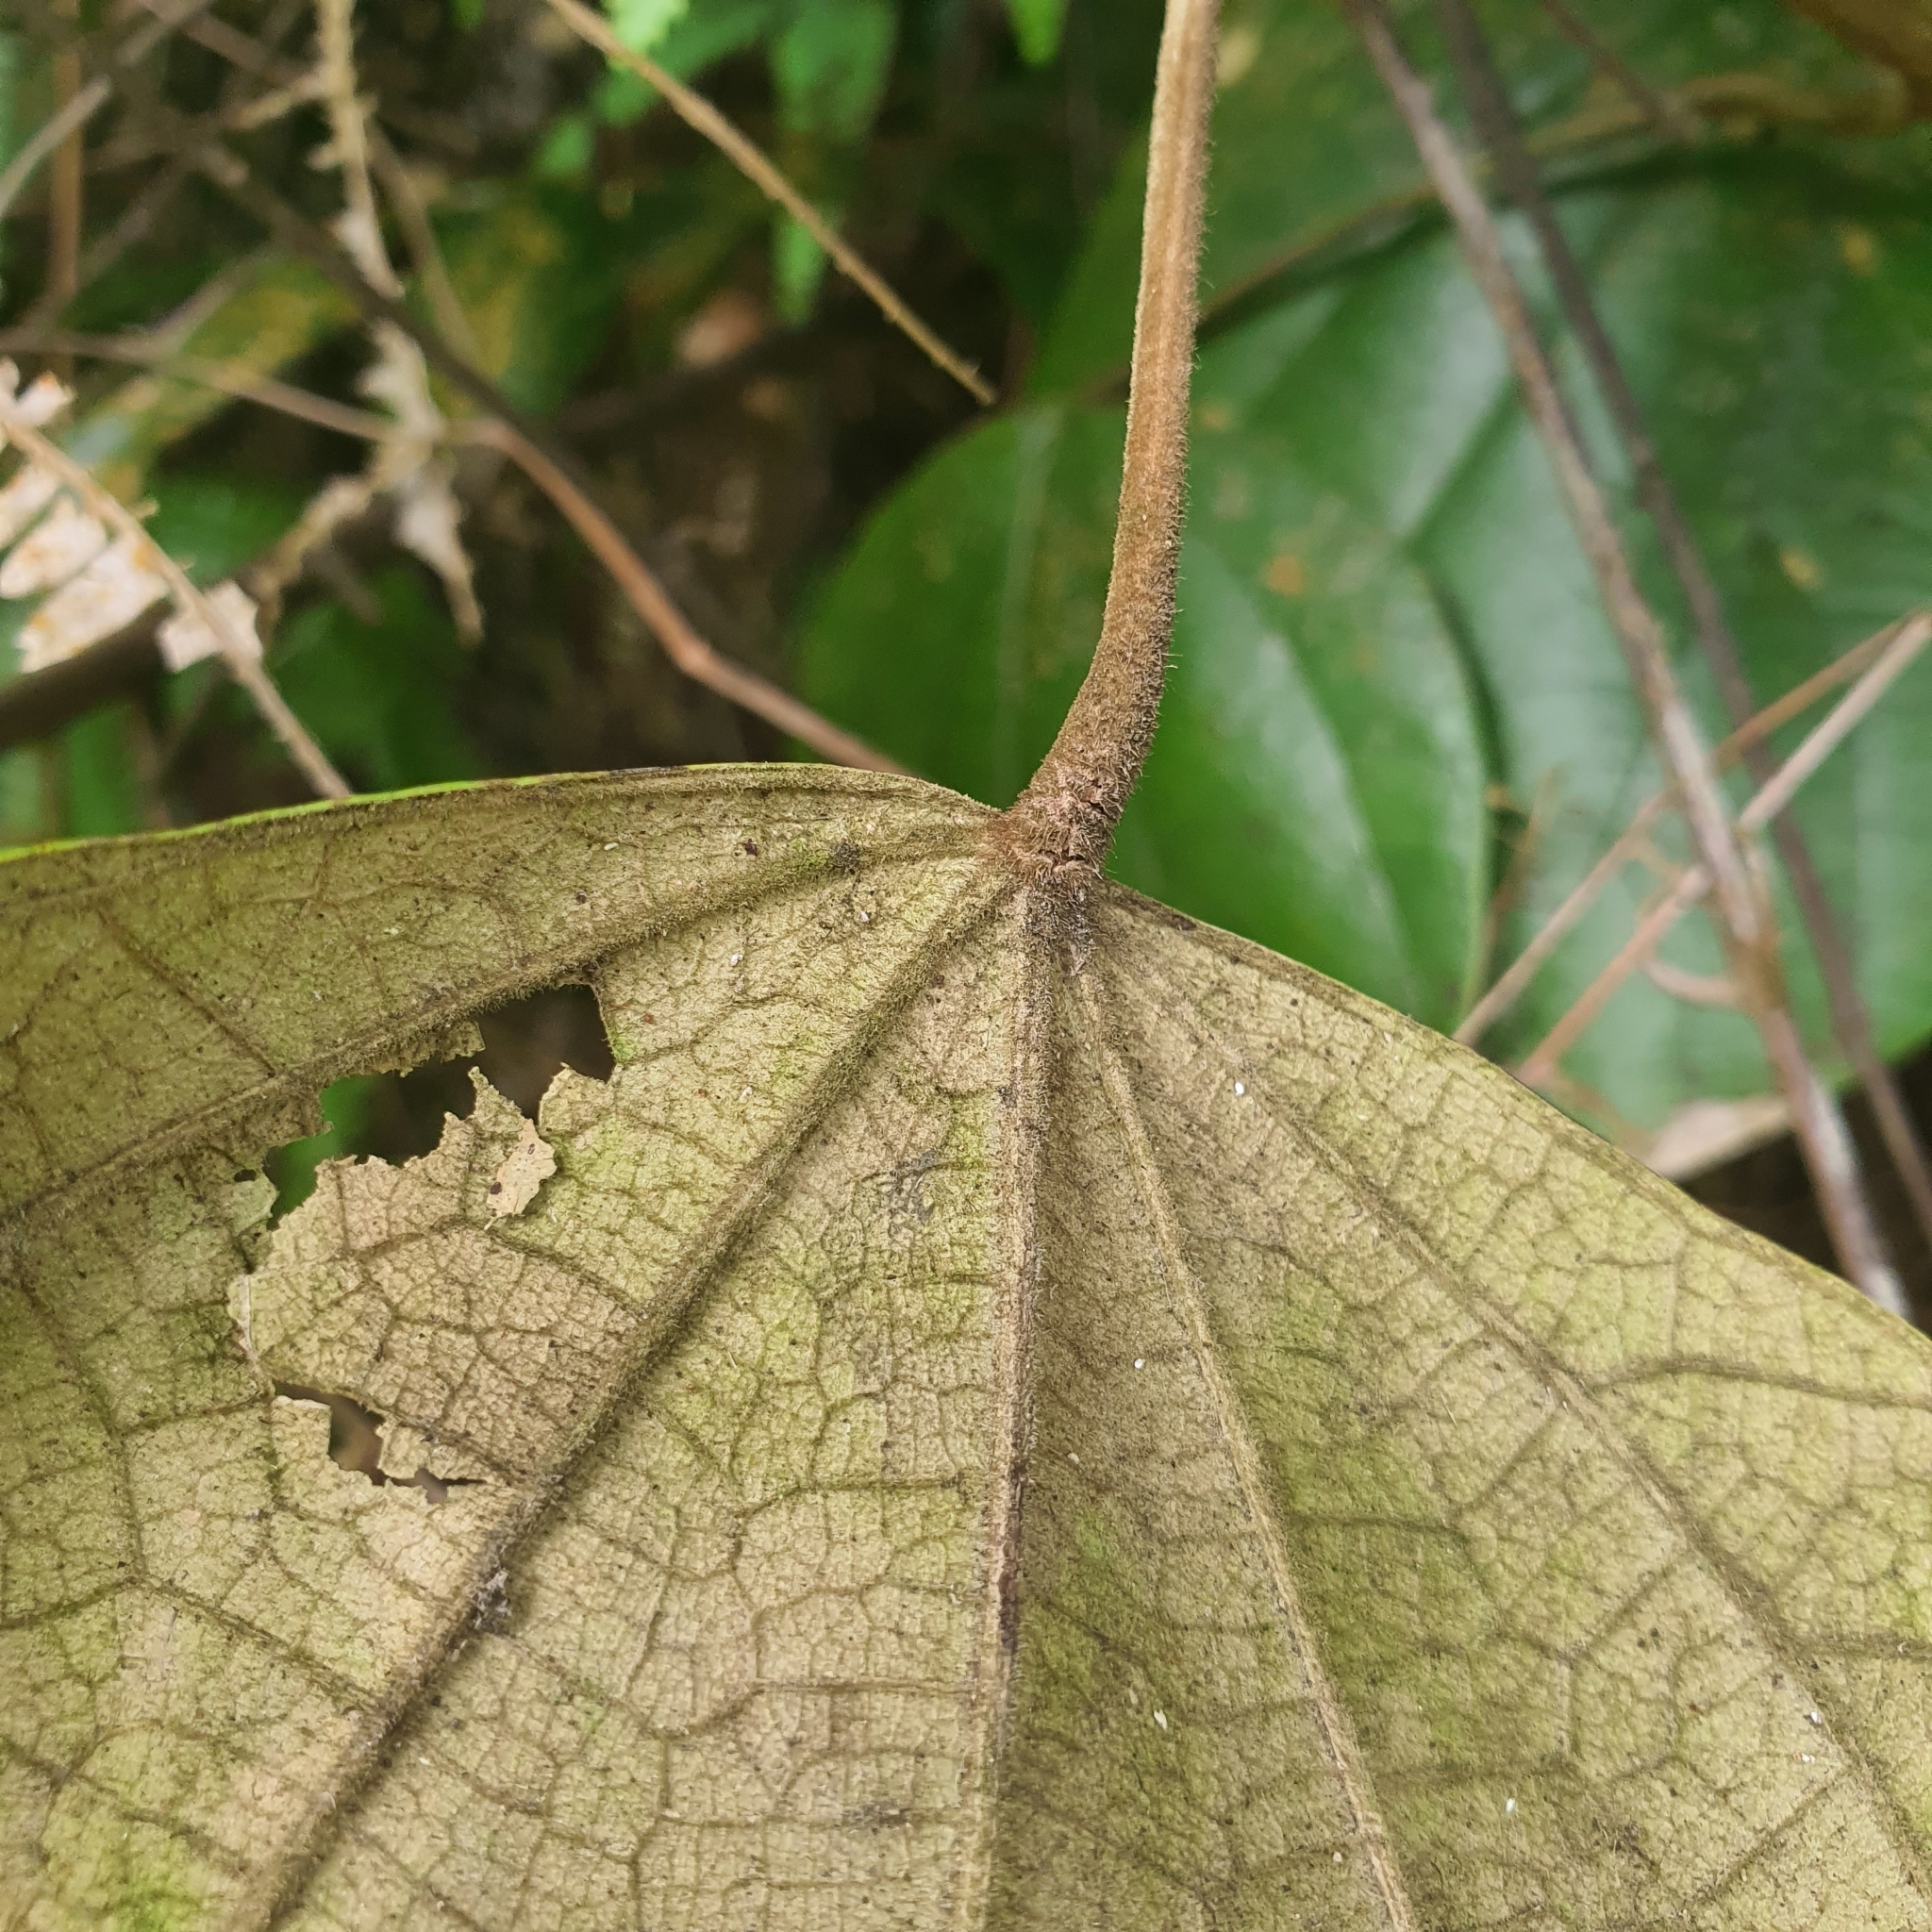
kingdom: Plantae
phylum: Tracheophyta
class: Magnoliopsida
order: Ranunculales
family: Menispermaceae
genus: Coscinium
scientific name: Coscinium fenestratum
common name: False calumba
